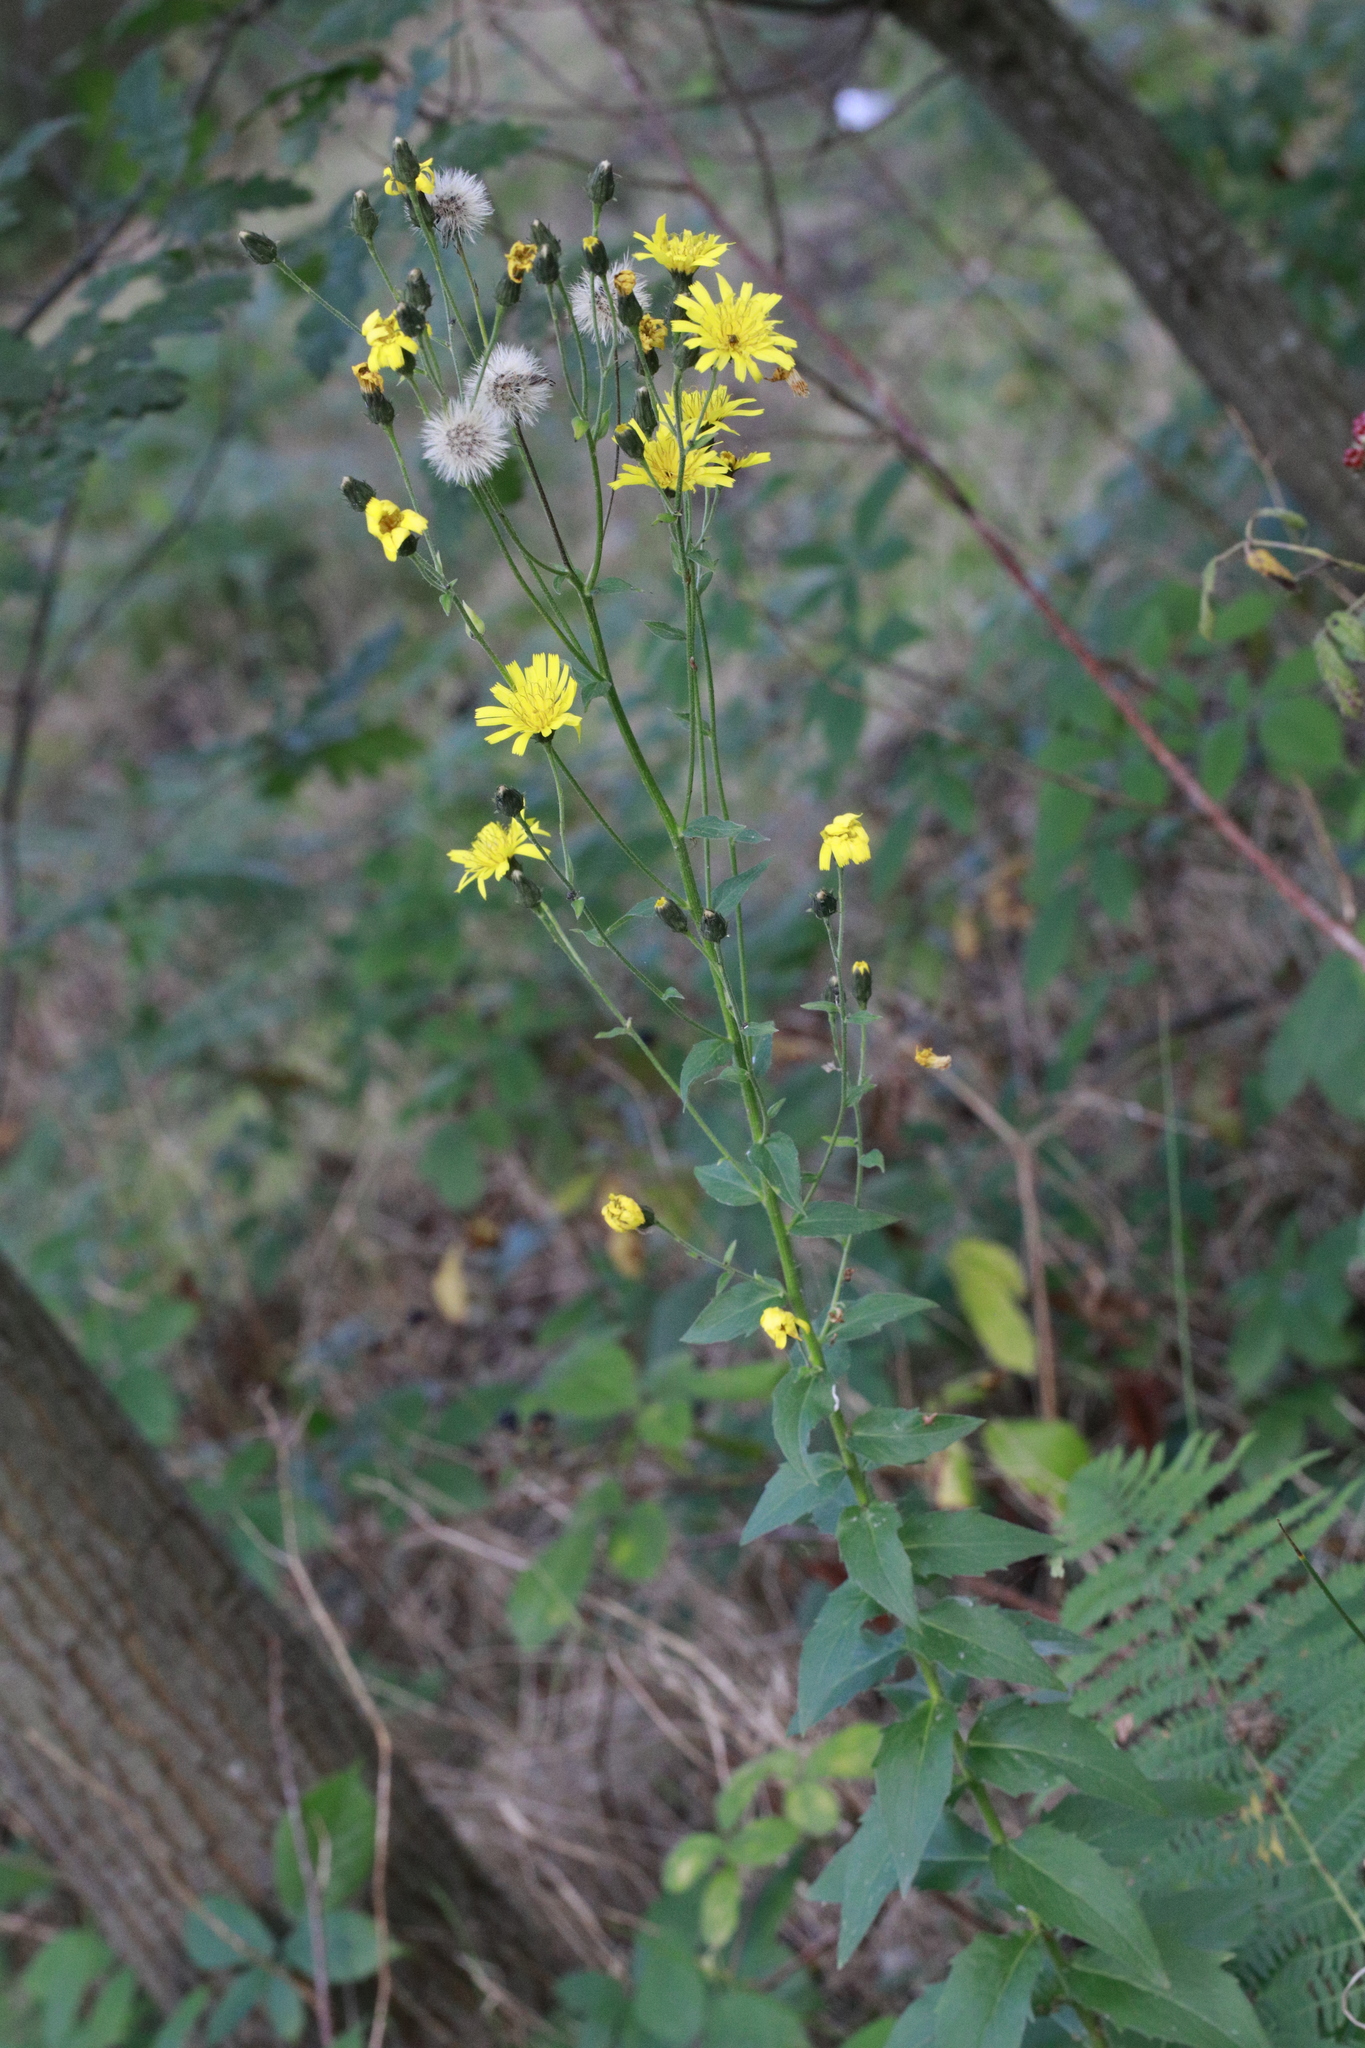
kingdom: Plantae
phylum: Tracheophyta
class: Magnoliopsida
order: Asterales
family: Asteraceae
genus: Hieracium
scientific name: Hieracium sabaudum
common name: New england hawkweed
